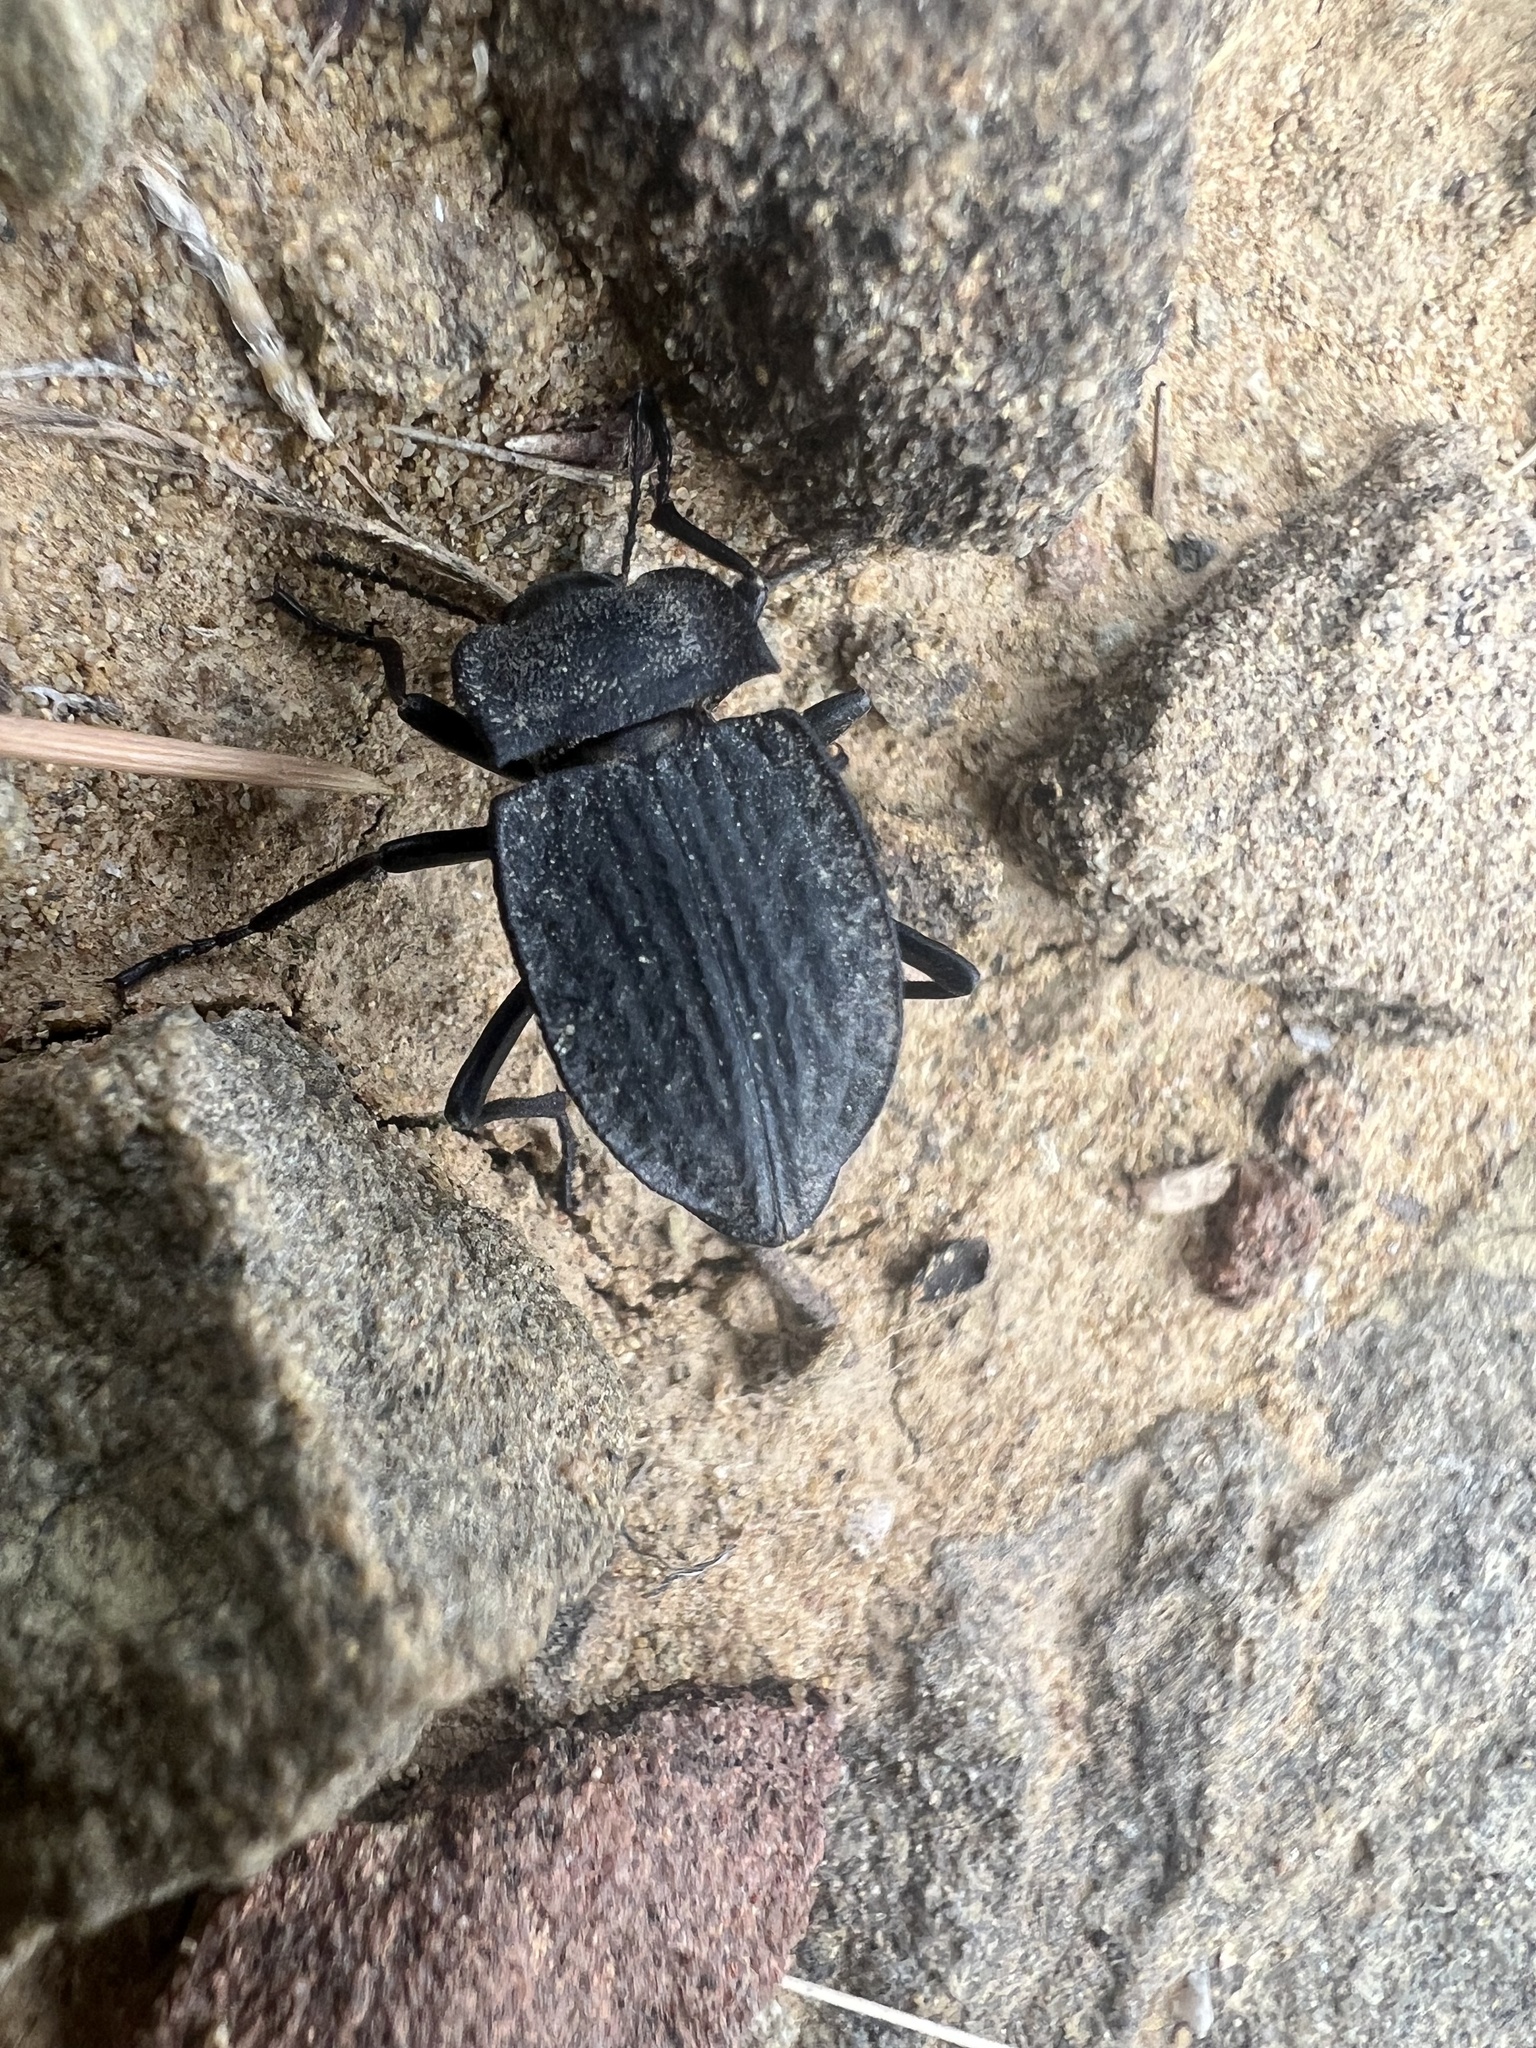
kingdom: Animalia
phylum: Arthropoda
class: Insecta
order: Coleoptera
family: Tenebrionidae
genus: Stenomorpha
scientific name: Stenomorpha opaca
